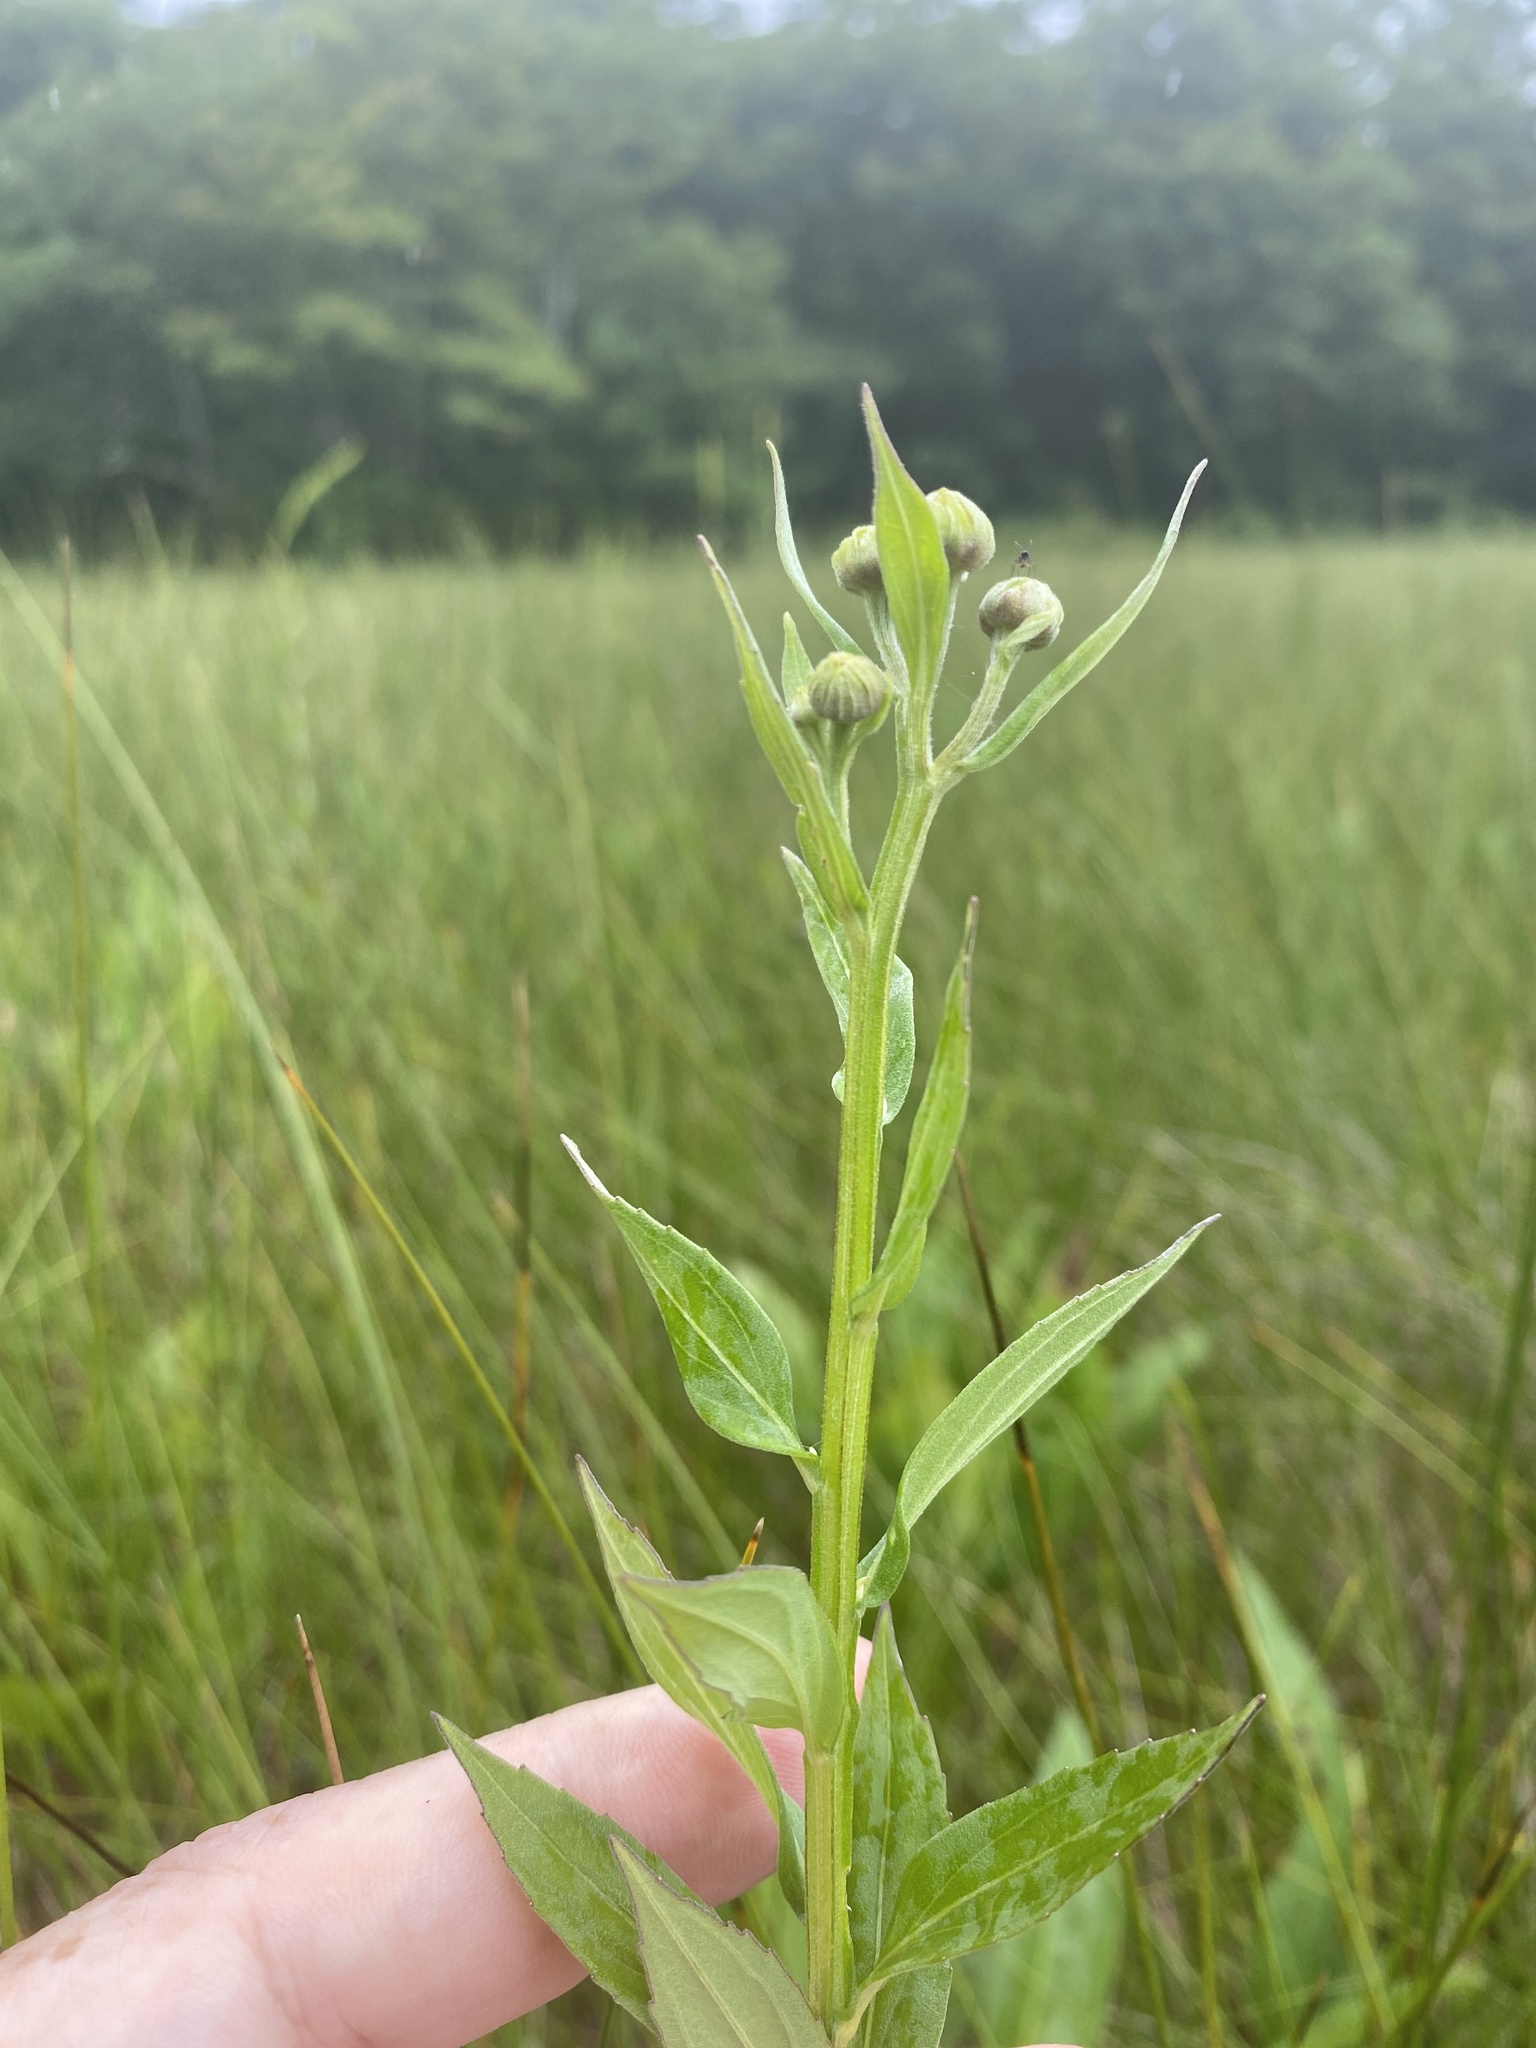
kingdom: Plantae
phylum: Tracheophyta
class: Magnoliopsida
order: Asterales
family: Asteraceae
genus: Helenium
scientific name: Helenium autumnale
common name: Sneezeweed
